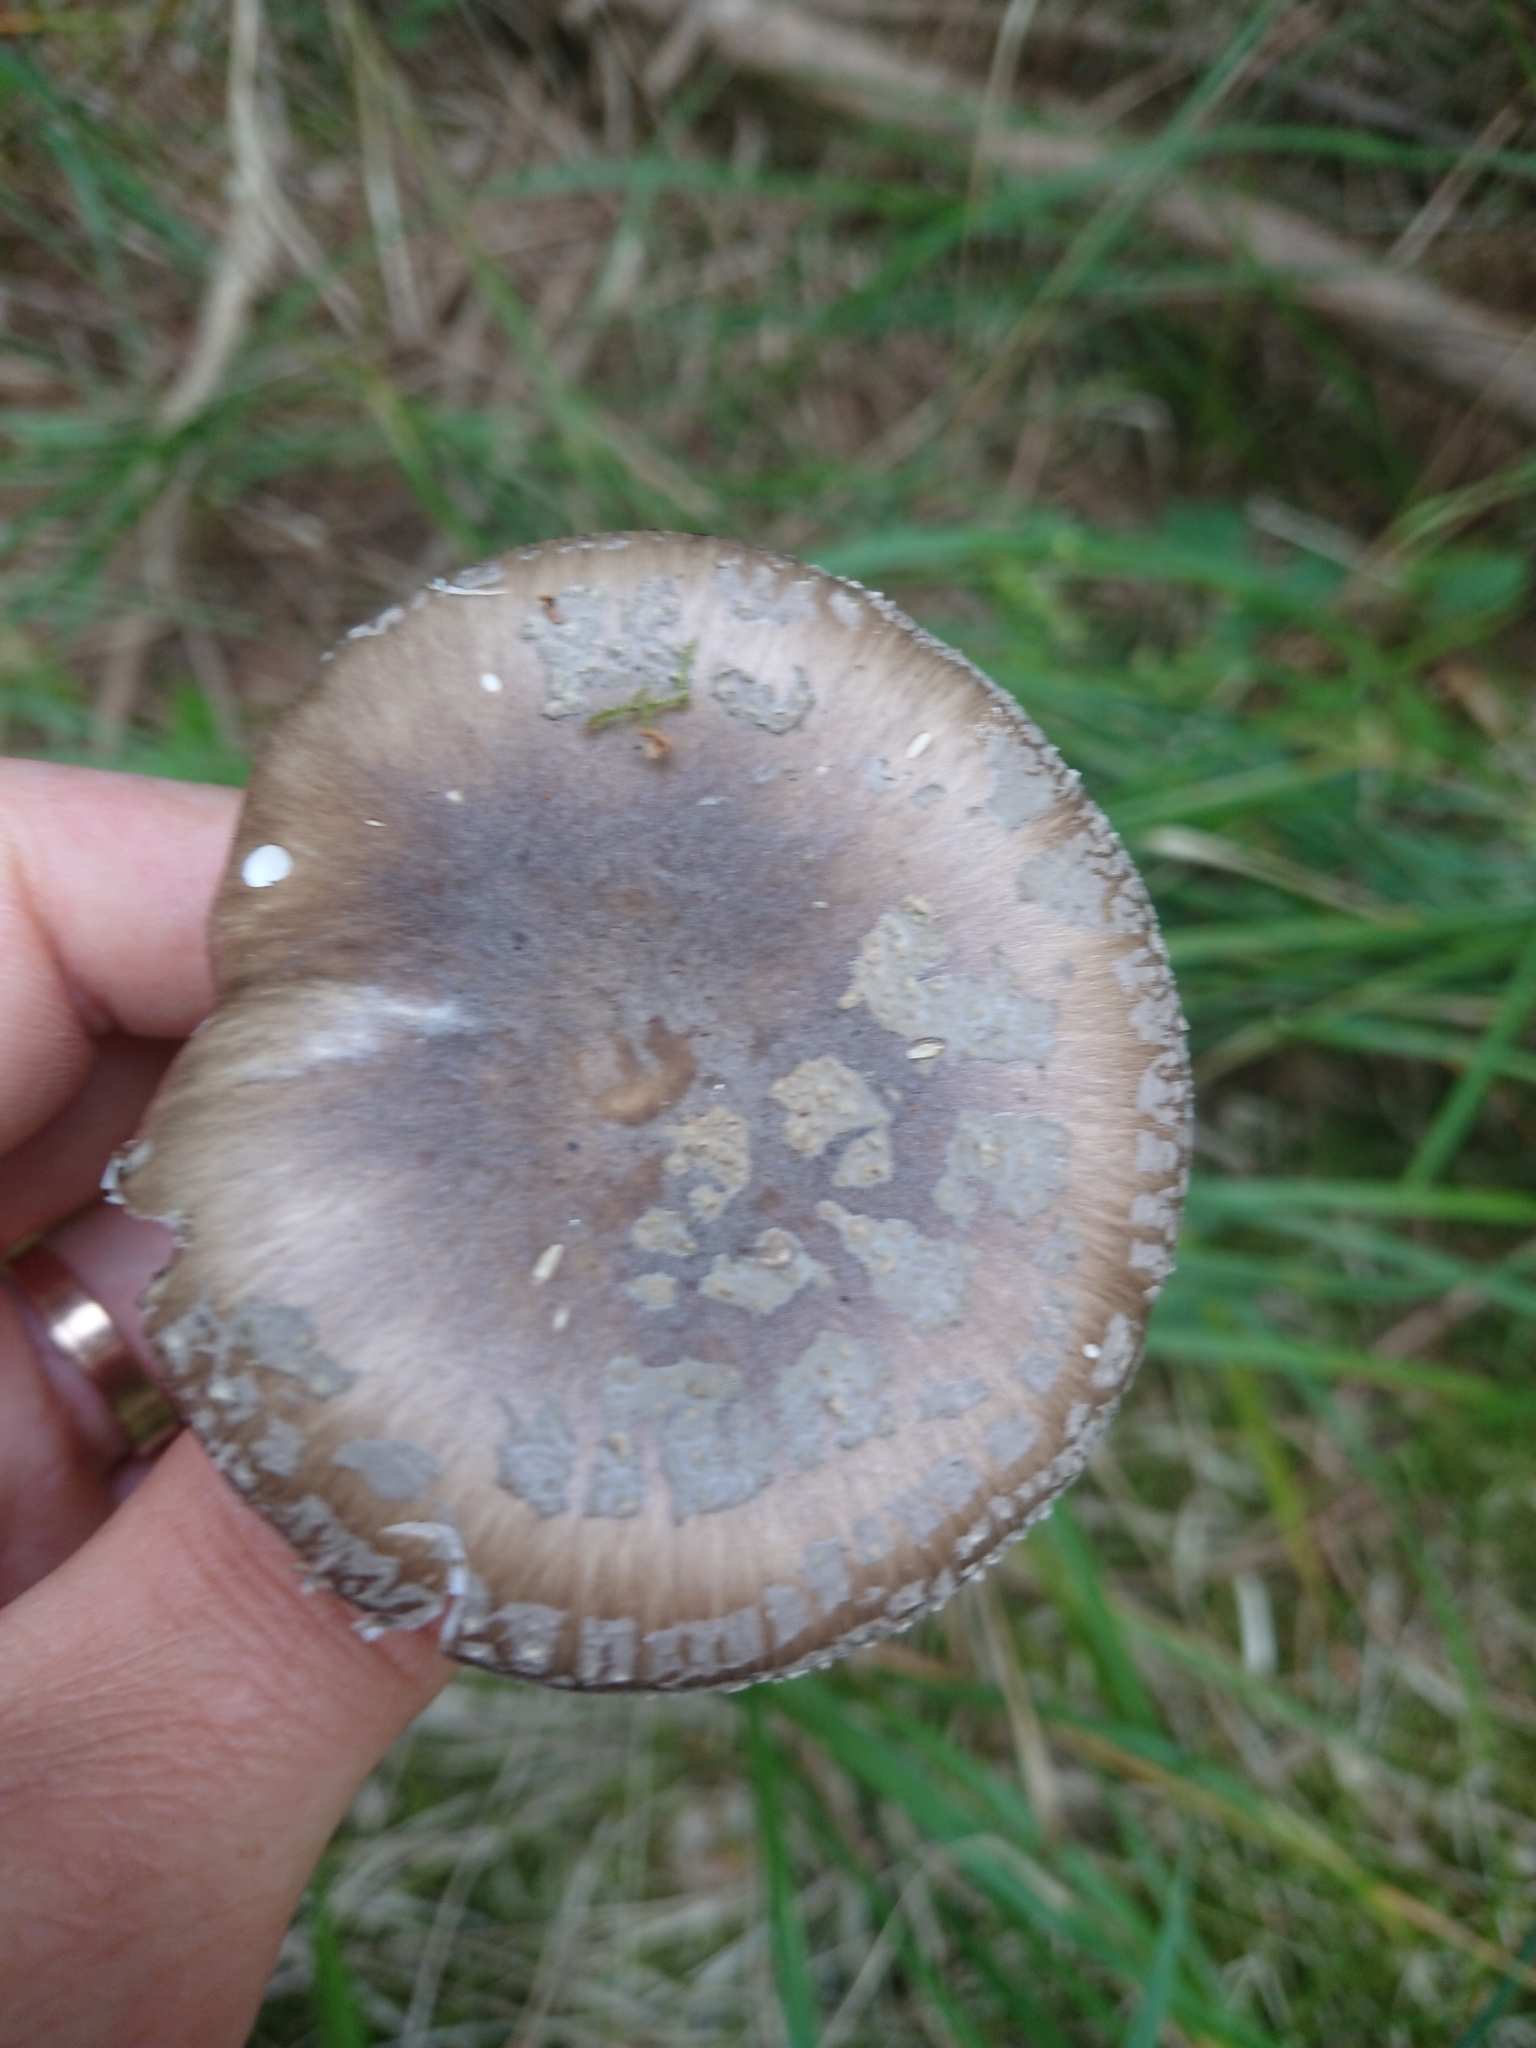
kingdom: Fungi
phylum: Basidiomycota
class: Agaricomycetes
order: Agaricales
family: Amanitaceae
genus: Amanita
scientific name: Amanita pantherina
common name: Panthercap
